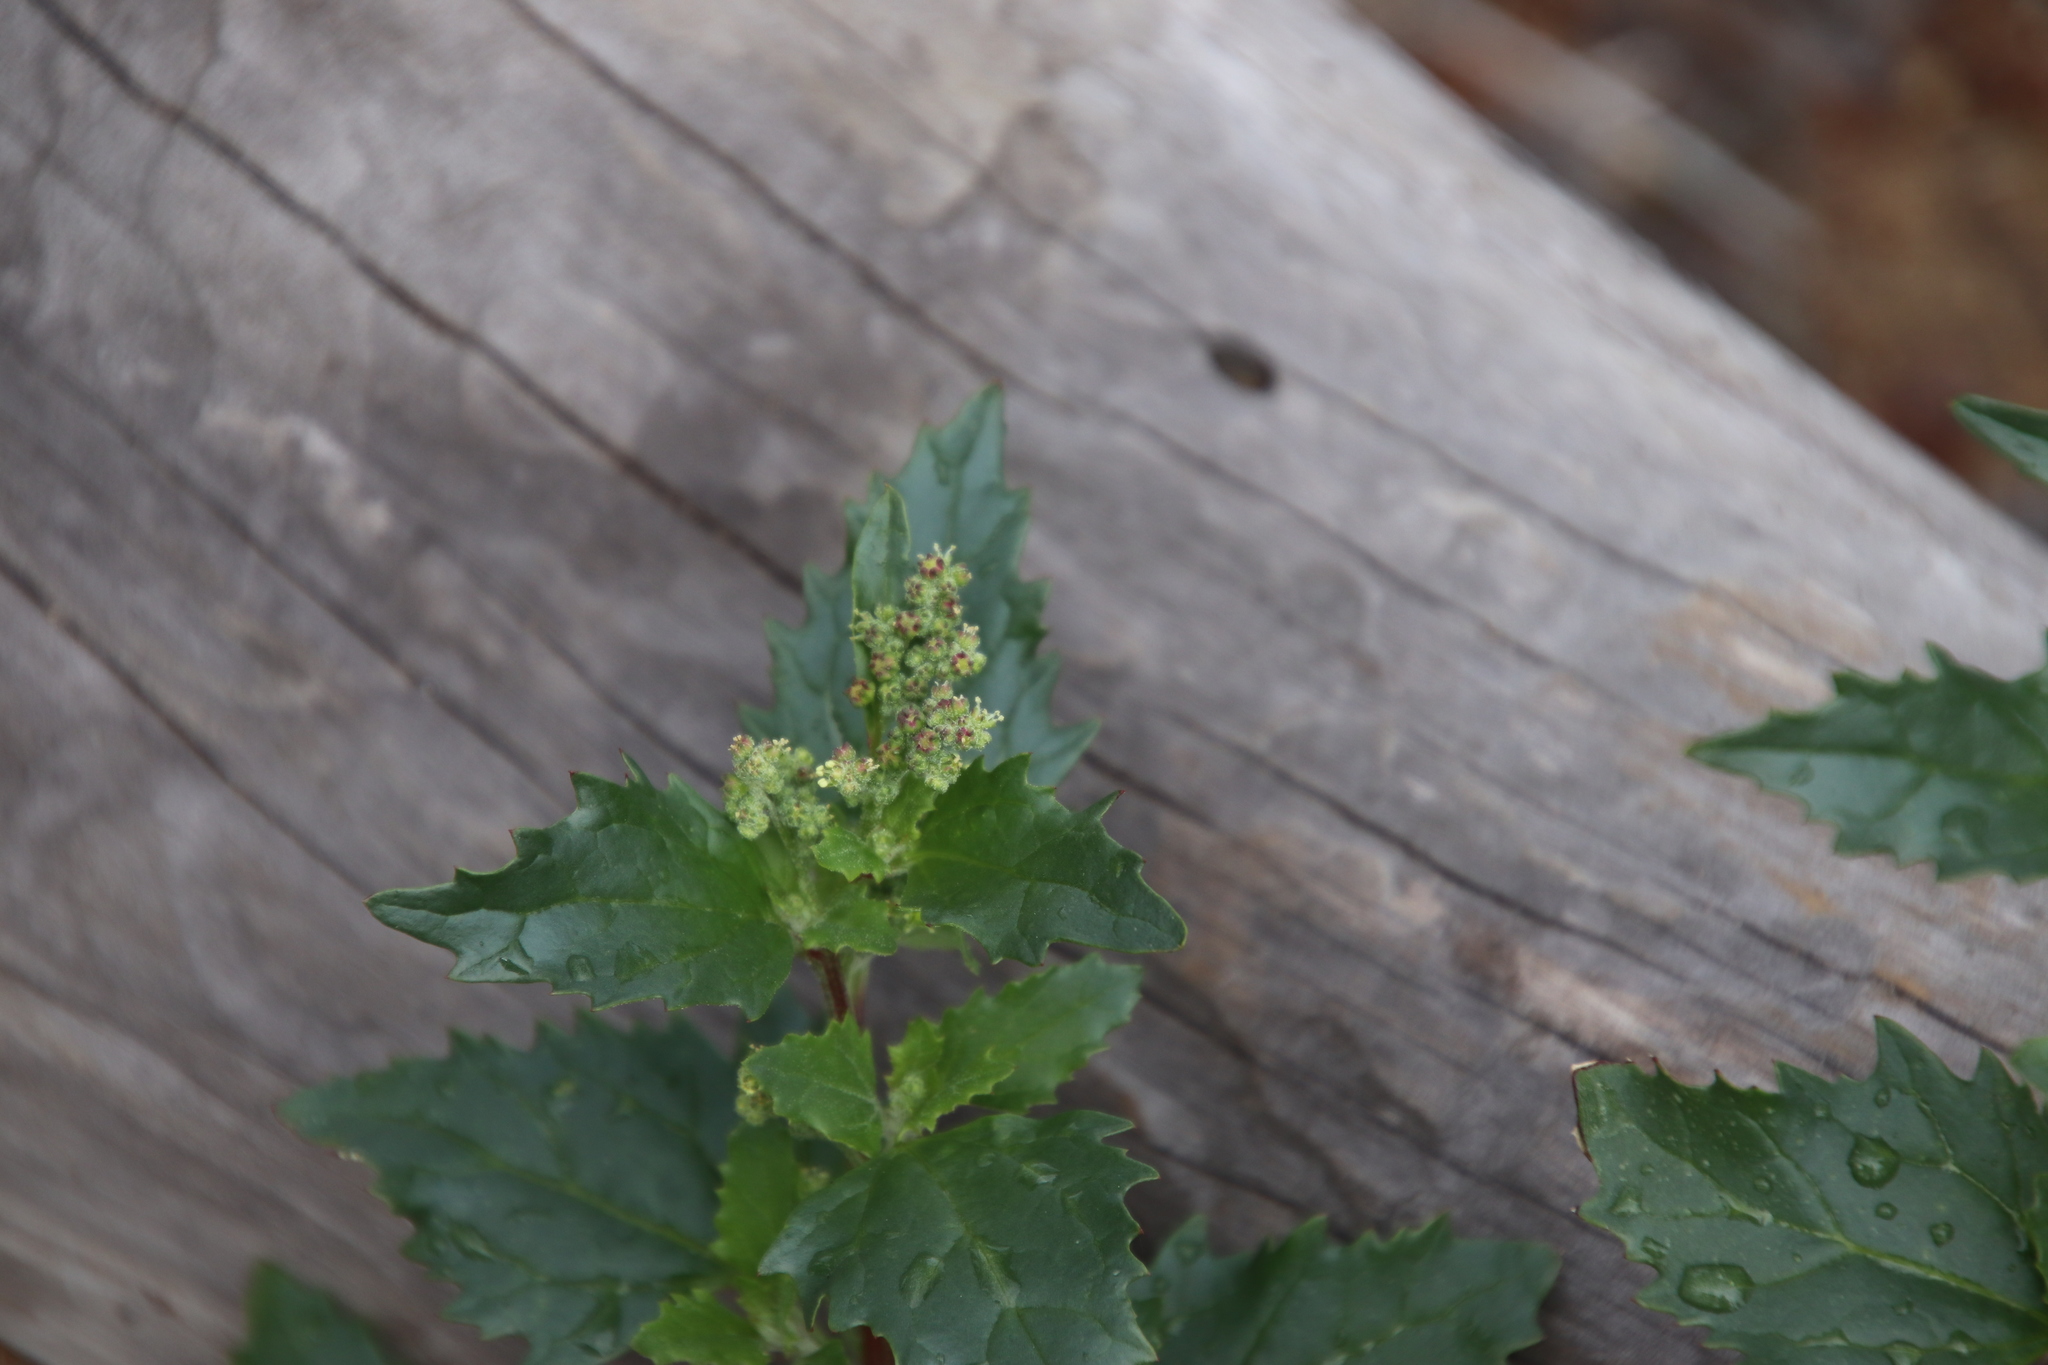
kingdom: Plantae
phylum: Tracheophyta
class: Magnoliopsida
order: Caryophyllales
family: Amaranthaceae
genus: Chenopodiastrum
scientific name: Chenopodiastrum murale
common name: Sowbane
